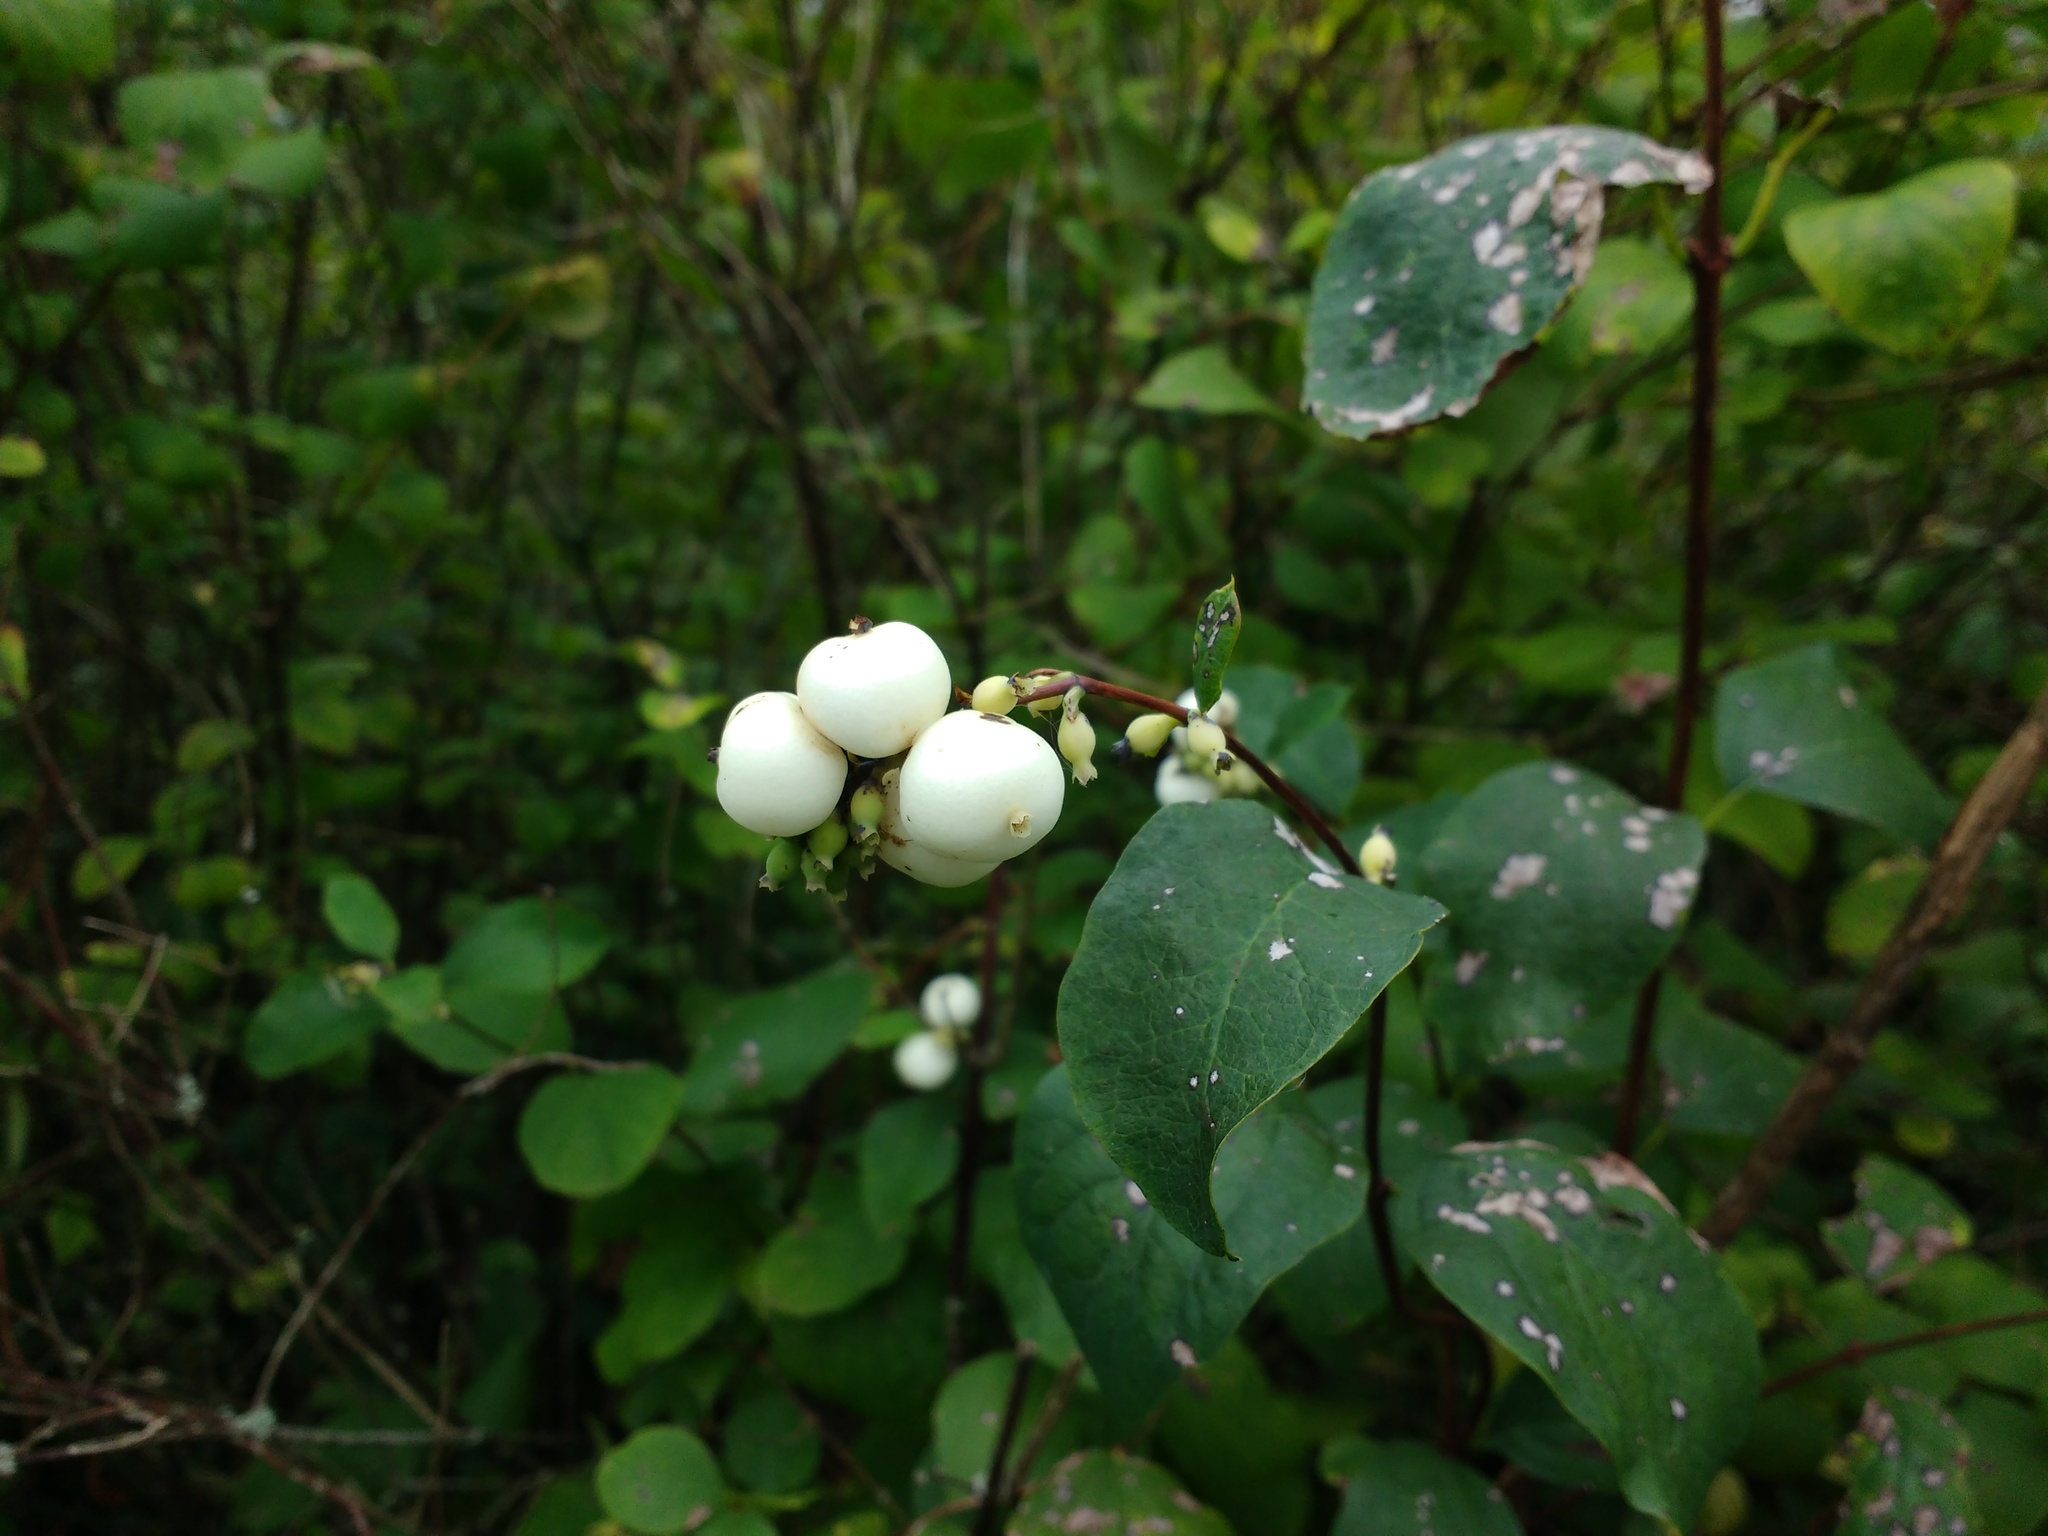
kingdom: Plantae
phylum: Tracheophyta
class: Magnoliopsida
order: Dipsacales
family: Caprifoliaceae
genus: Symphoricarpos
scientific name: Symphoricarpos albus
